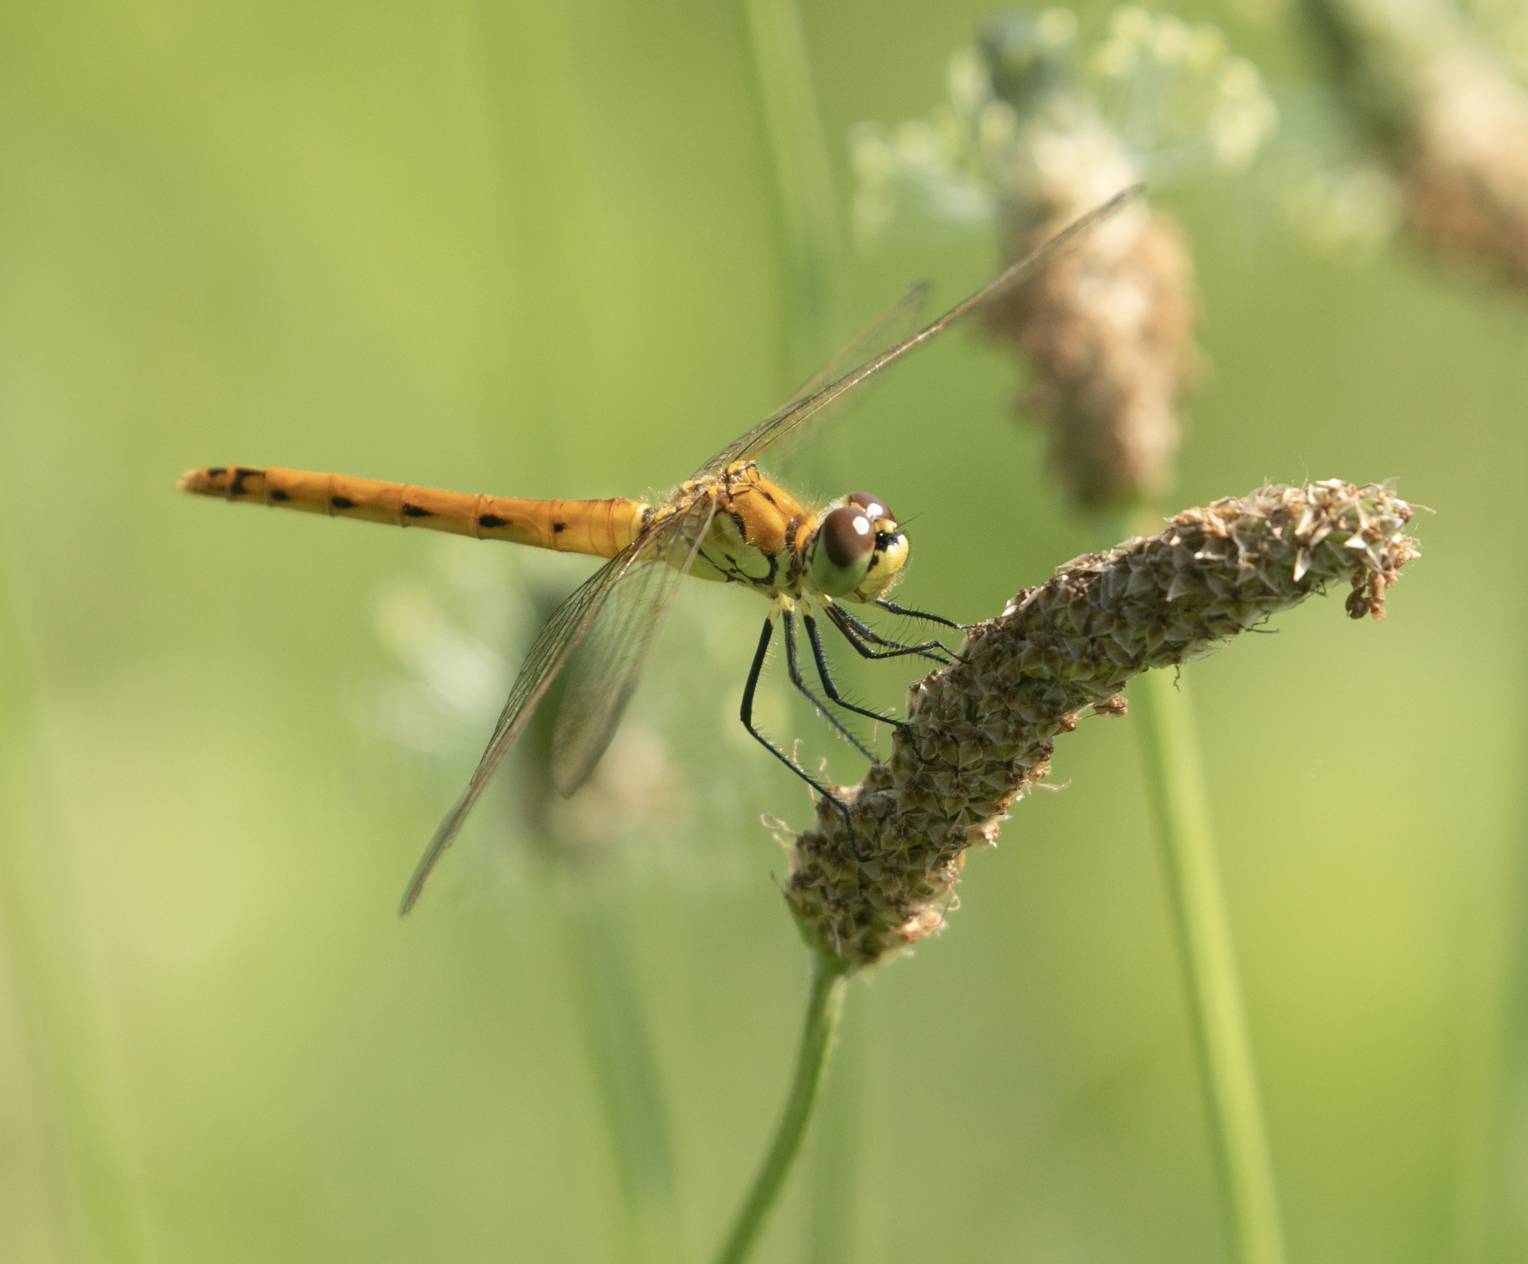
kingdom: Animalia
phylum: Arthropoda
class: Insecta
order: Odonata
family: Libellulidae
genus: Sympetrum
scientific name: Sympetrum depressiusculum
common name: Spotted darter
